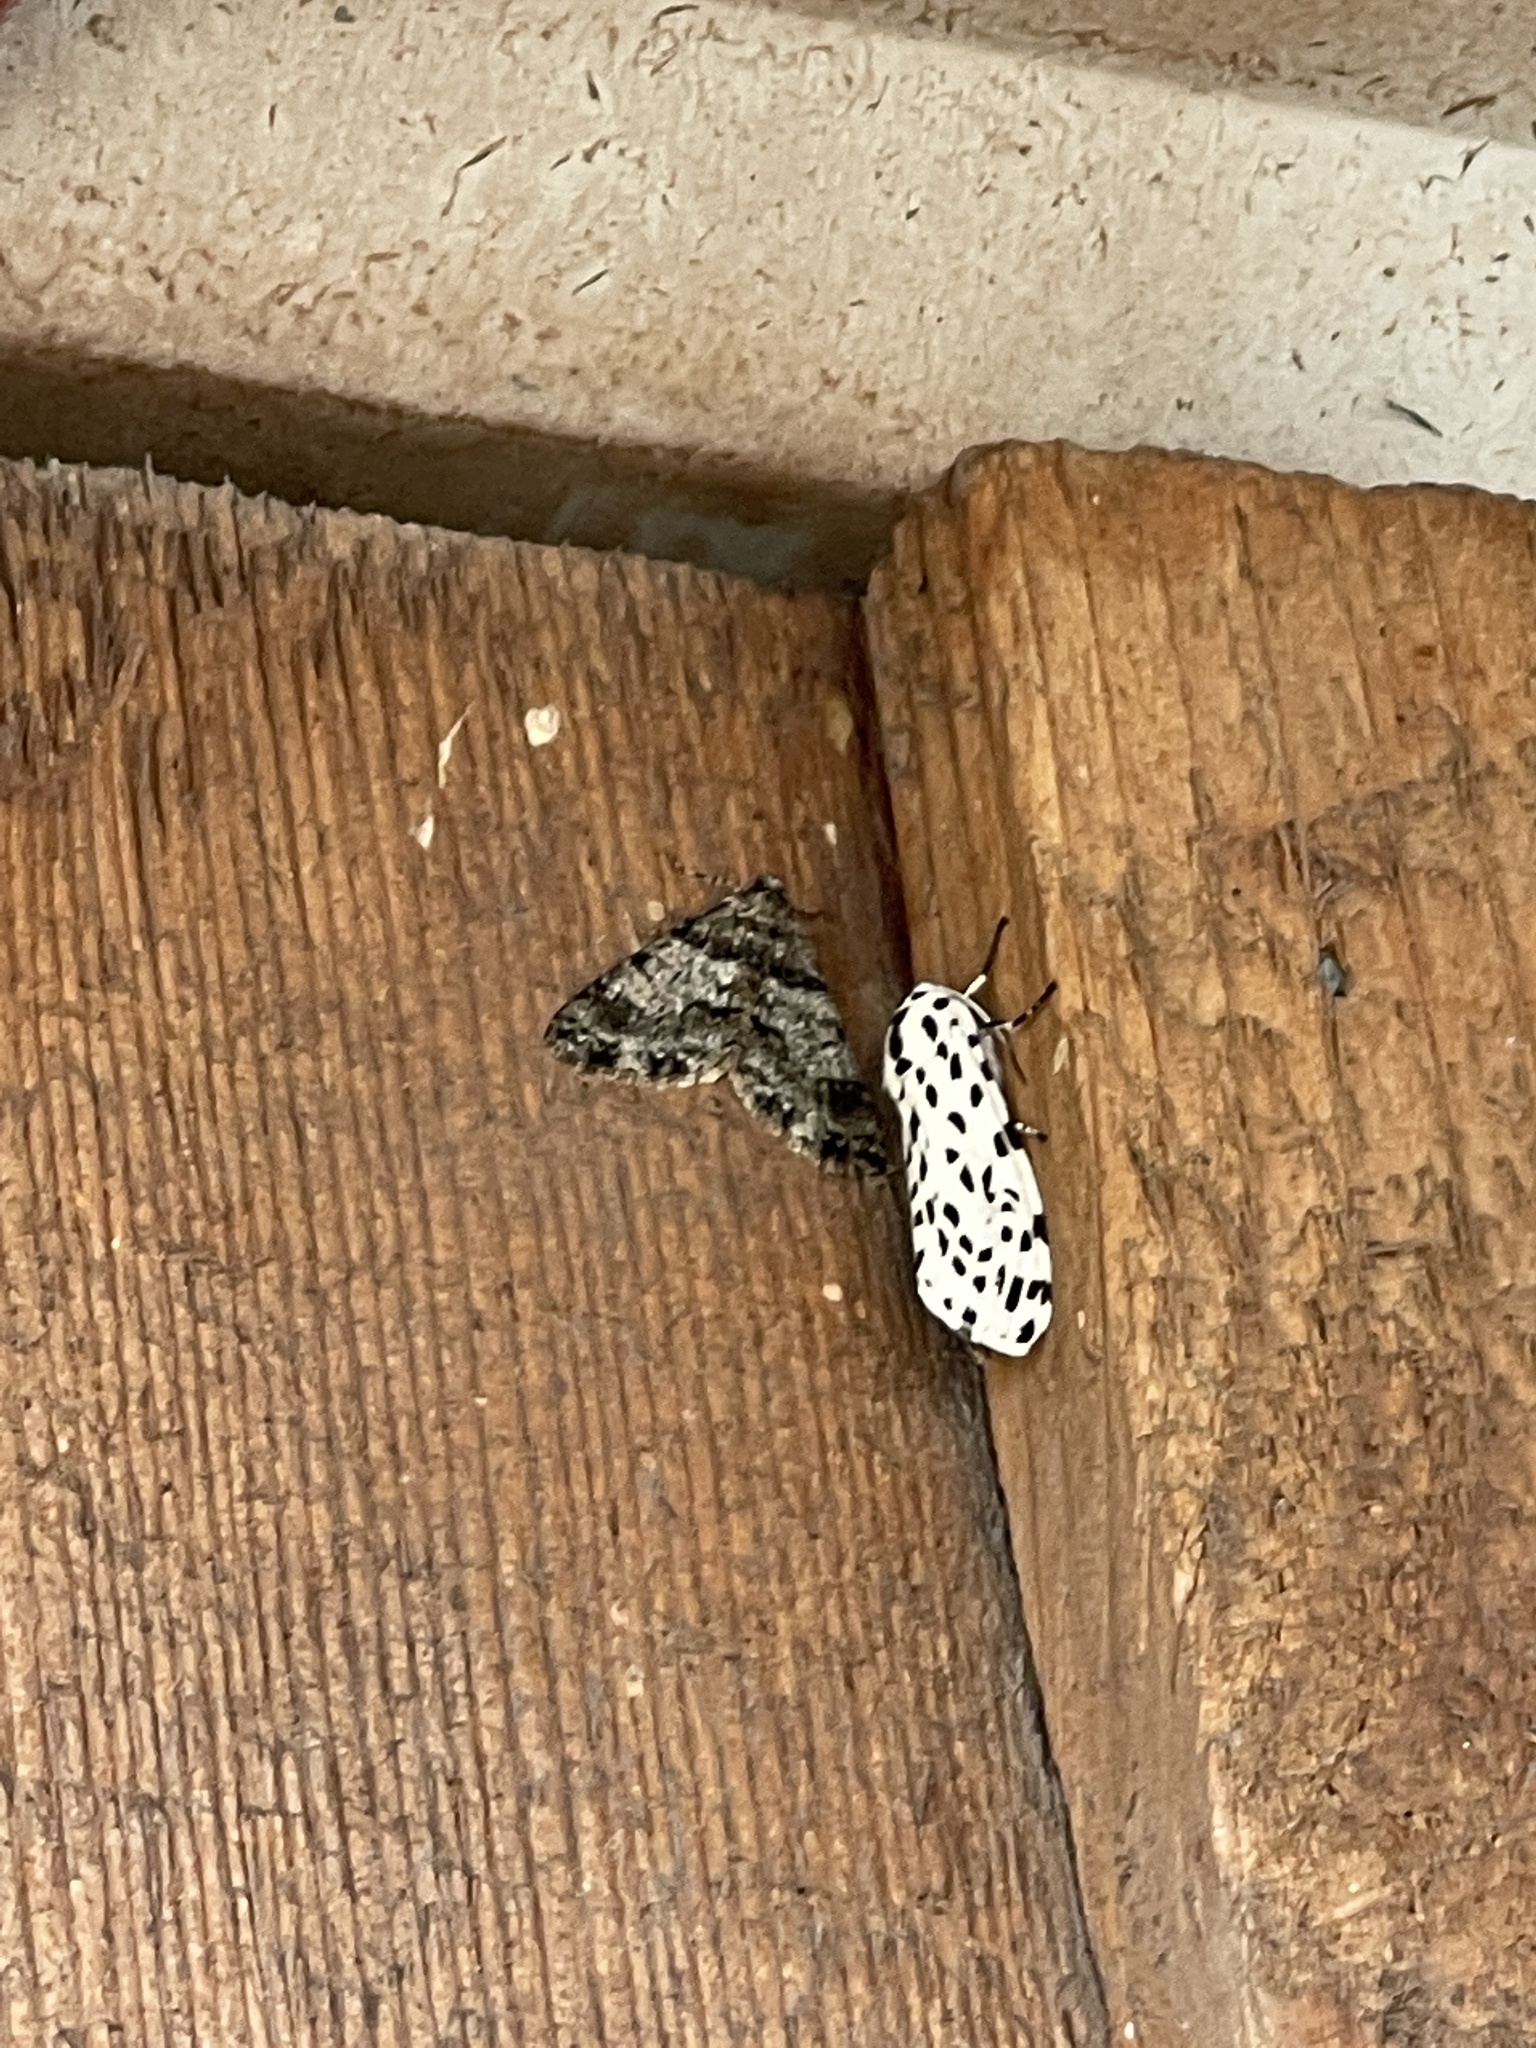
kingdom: Animalia
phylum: Arthropoda
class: Insecta
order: Lepidoptera
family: Erebidae
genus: Hypercompe
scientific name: Hypercompe permaculata
